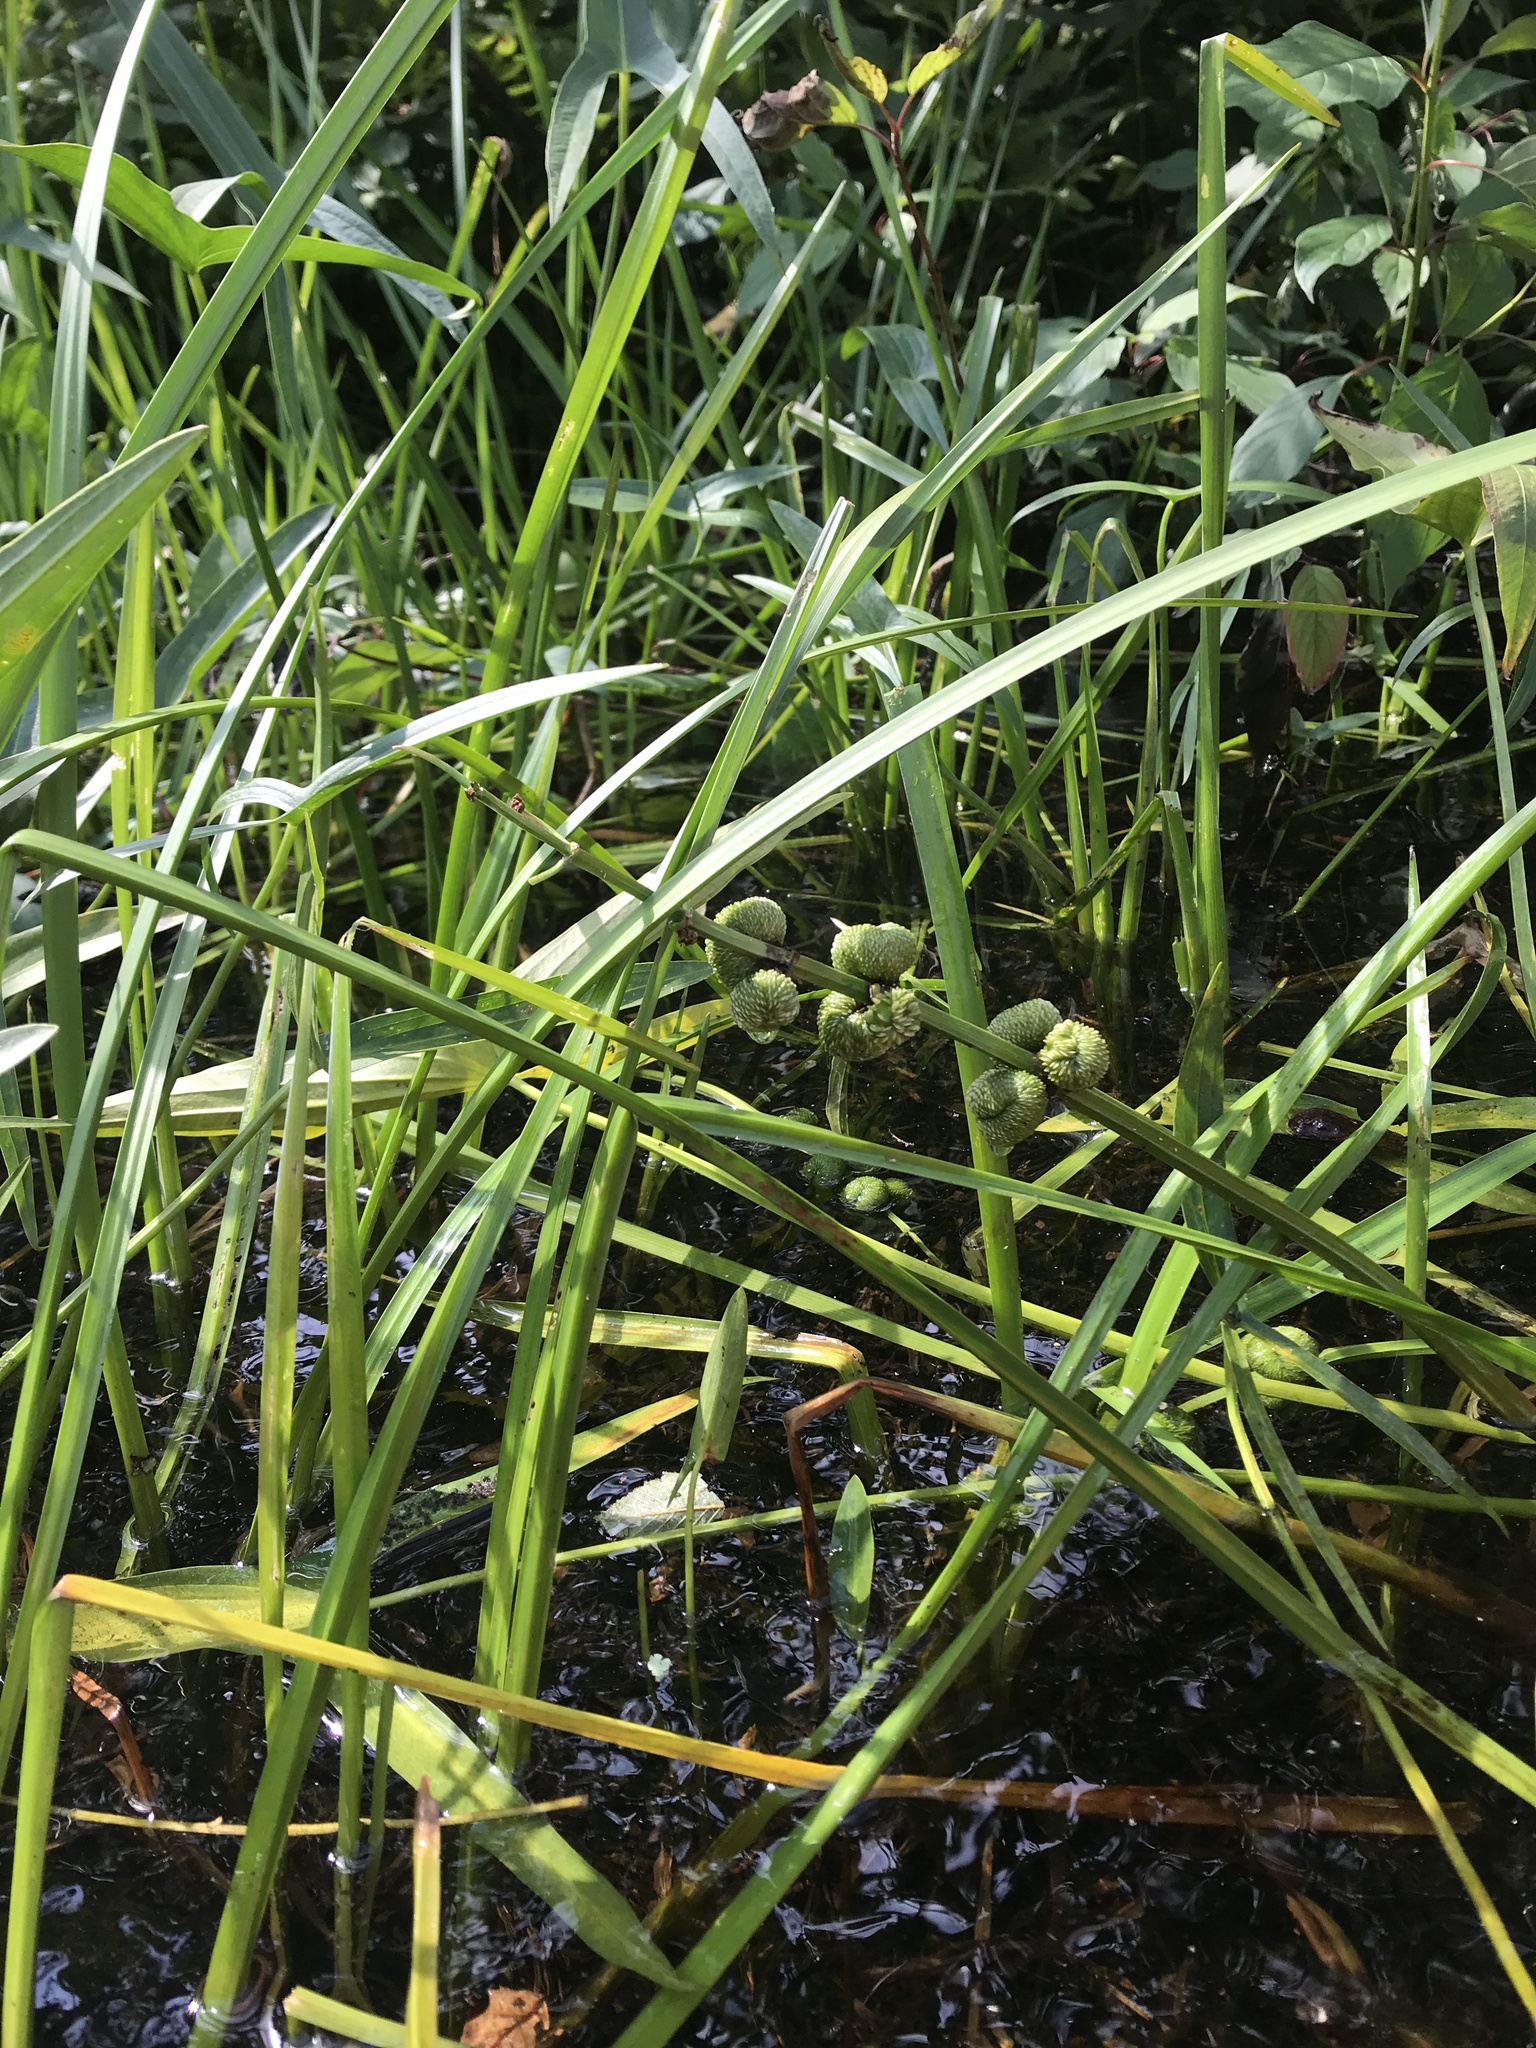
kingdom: Plantae
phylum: Tracheophyta
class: Liliopsida
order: Alismatales
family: Alismataceae
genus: Sagittaria
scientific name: Sagittaria latifolia
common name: Duck-potato
